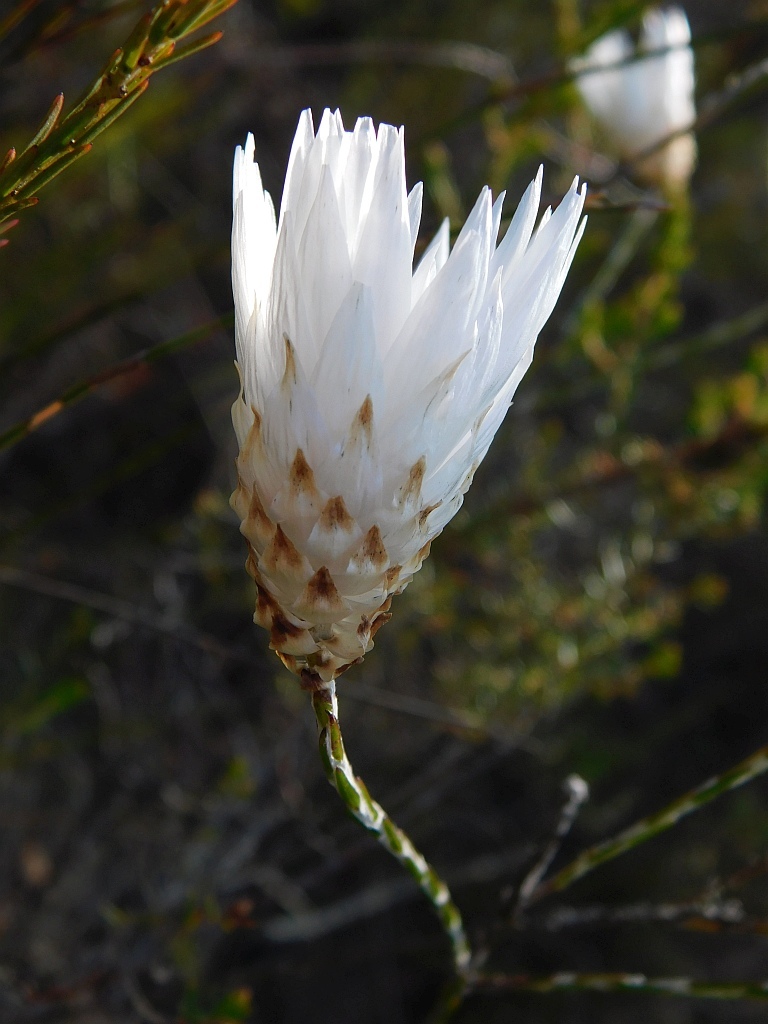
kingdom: Plantae
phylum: Tracheophyta
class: Magnoliopsida
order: Asterales
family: Asteraceae
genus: Edmondia
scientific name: Edmondia sesamoides
